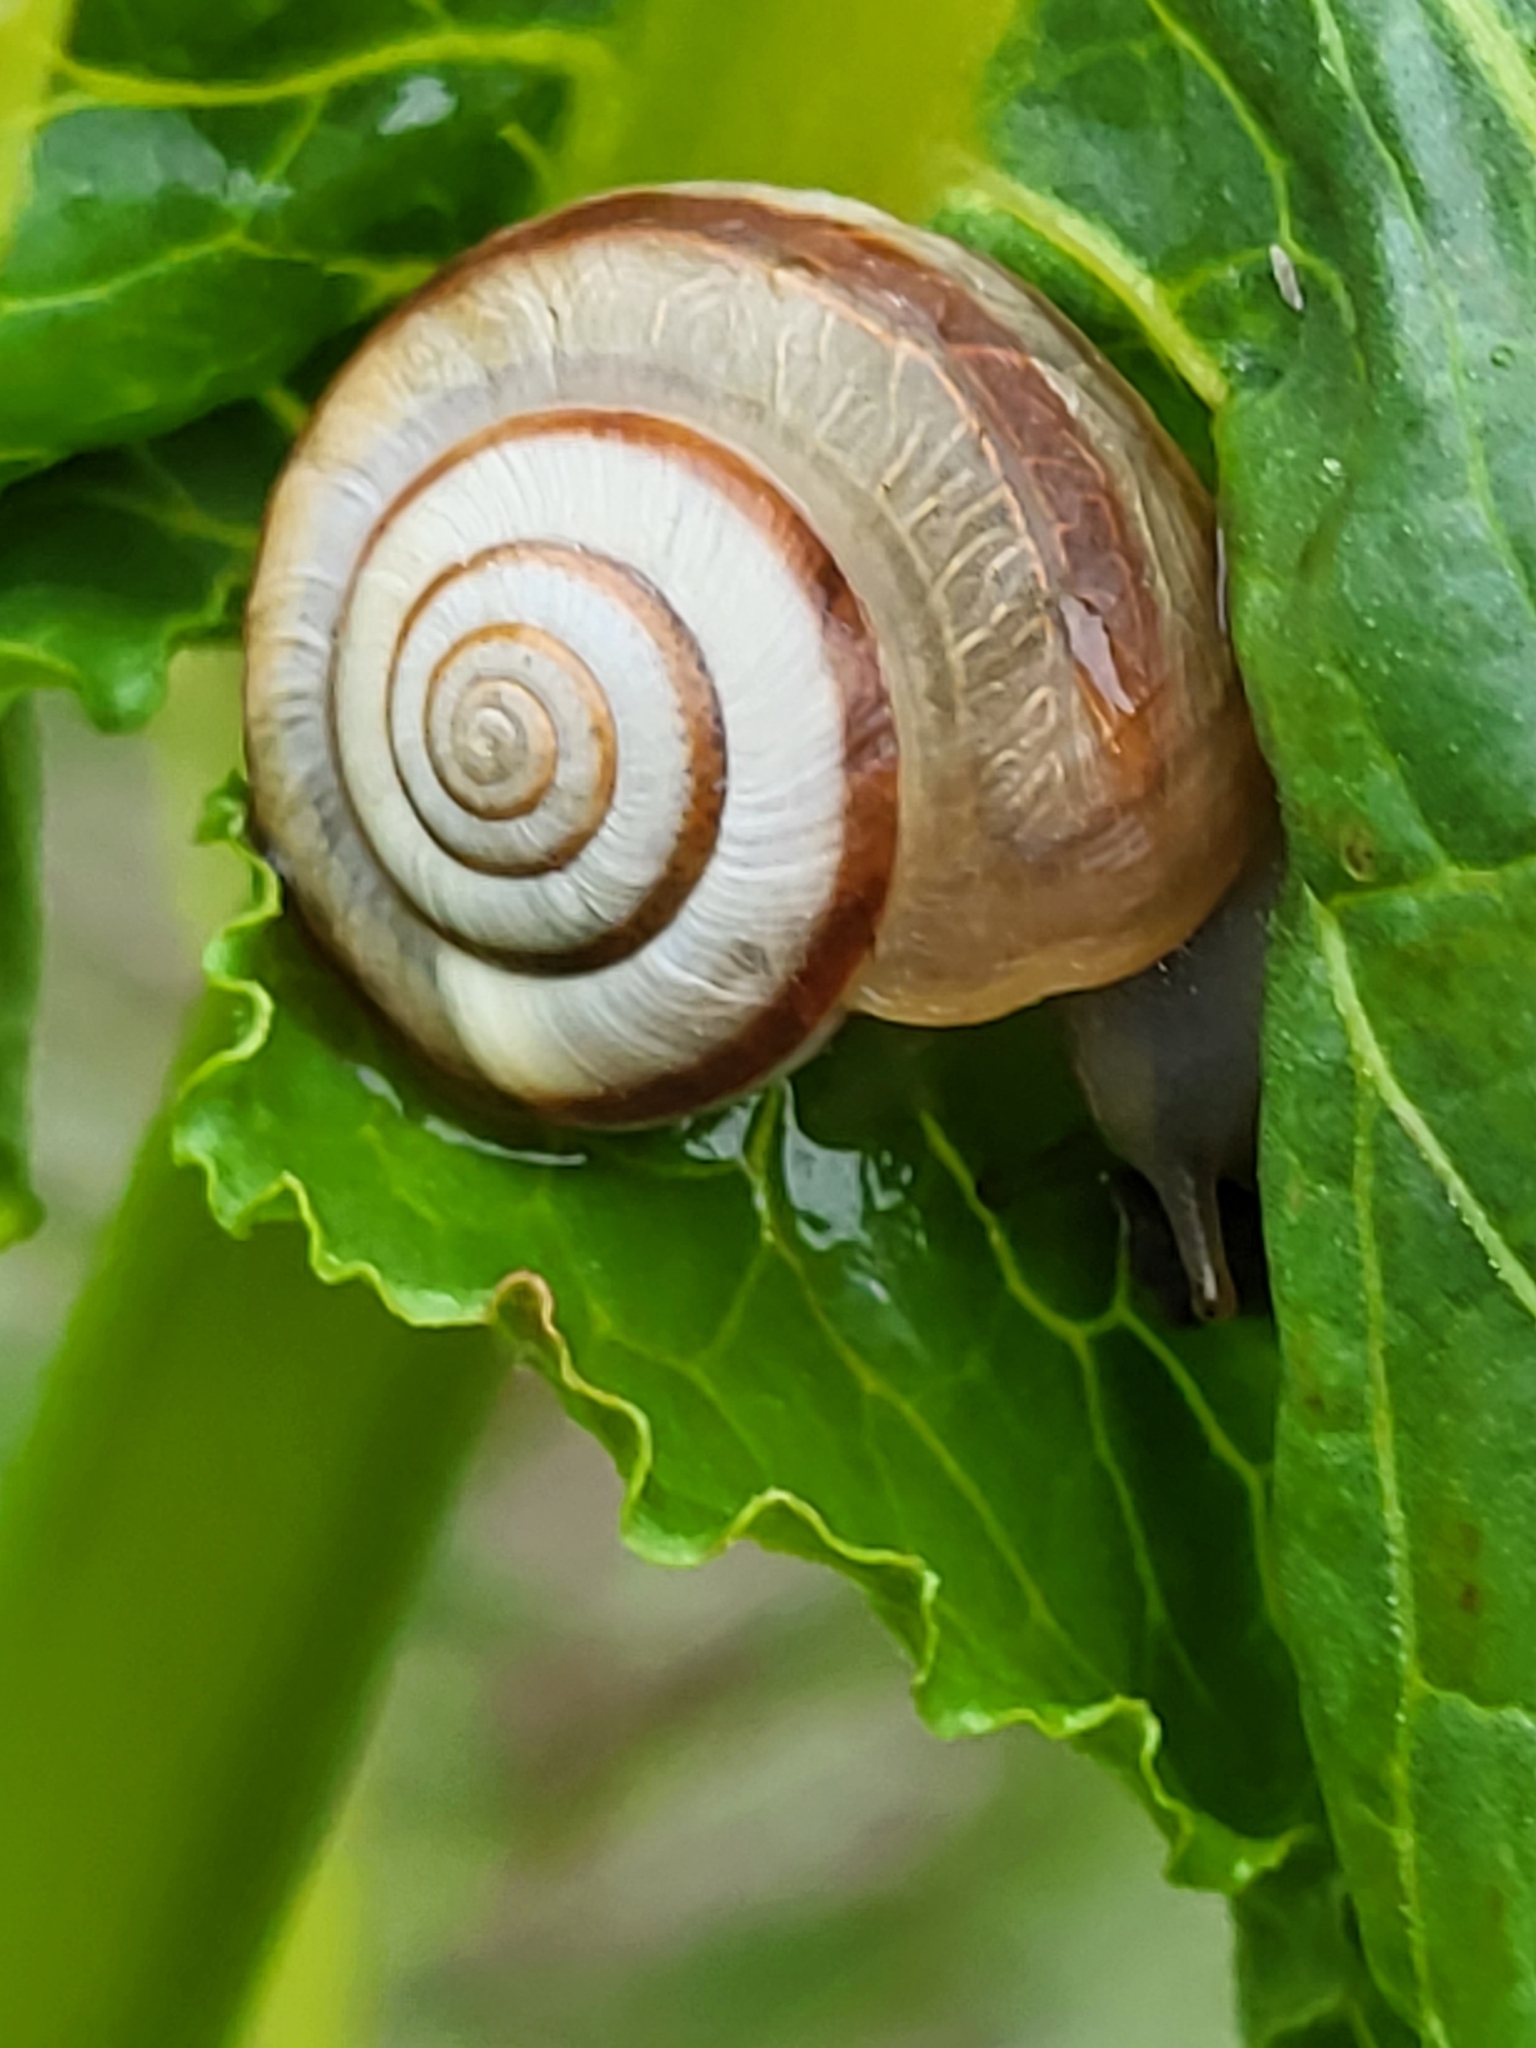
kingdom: Animalia
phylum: Mollusca
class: Gastropoda
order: Stylommatophora
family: Hygromiidae
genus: Lazicana
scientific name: Lazicana suanetica
